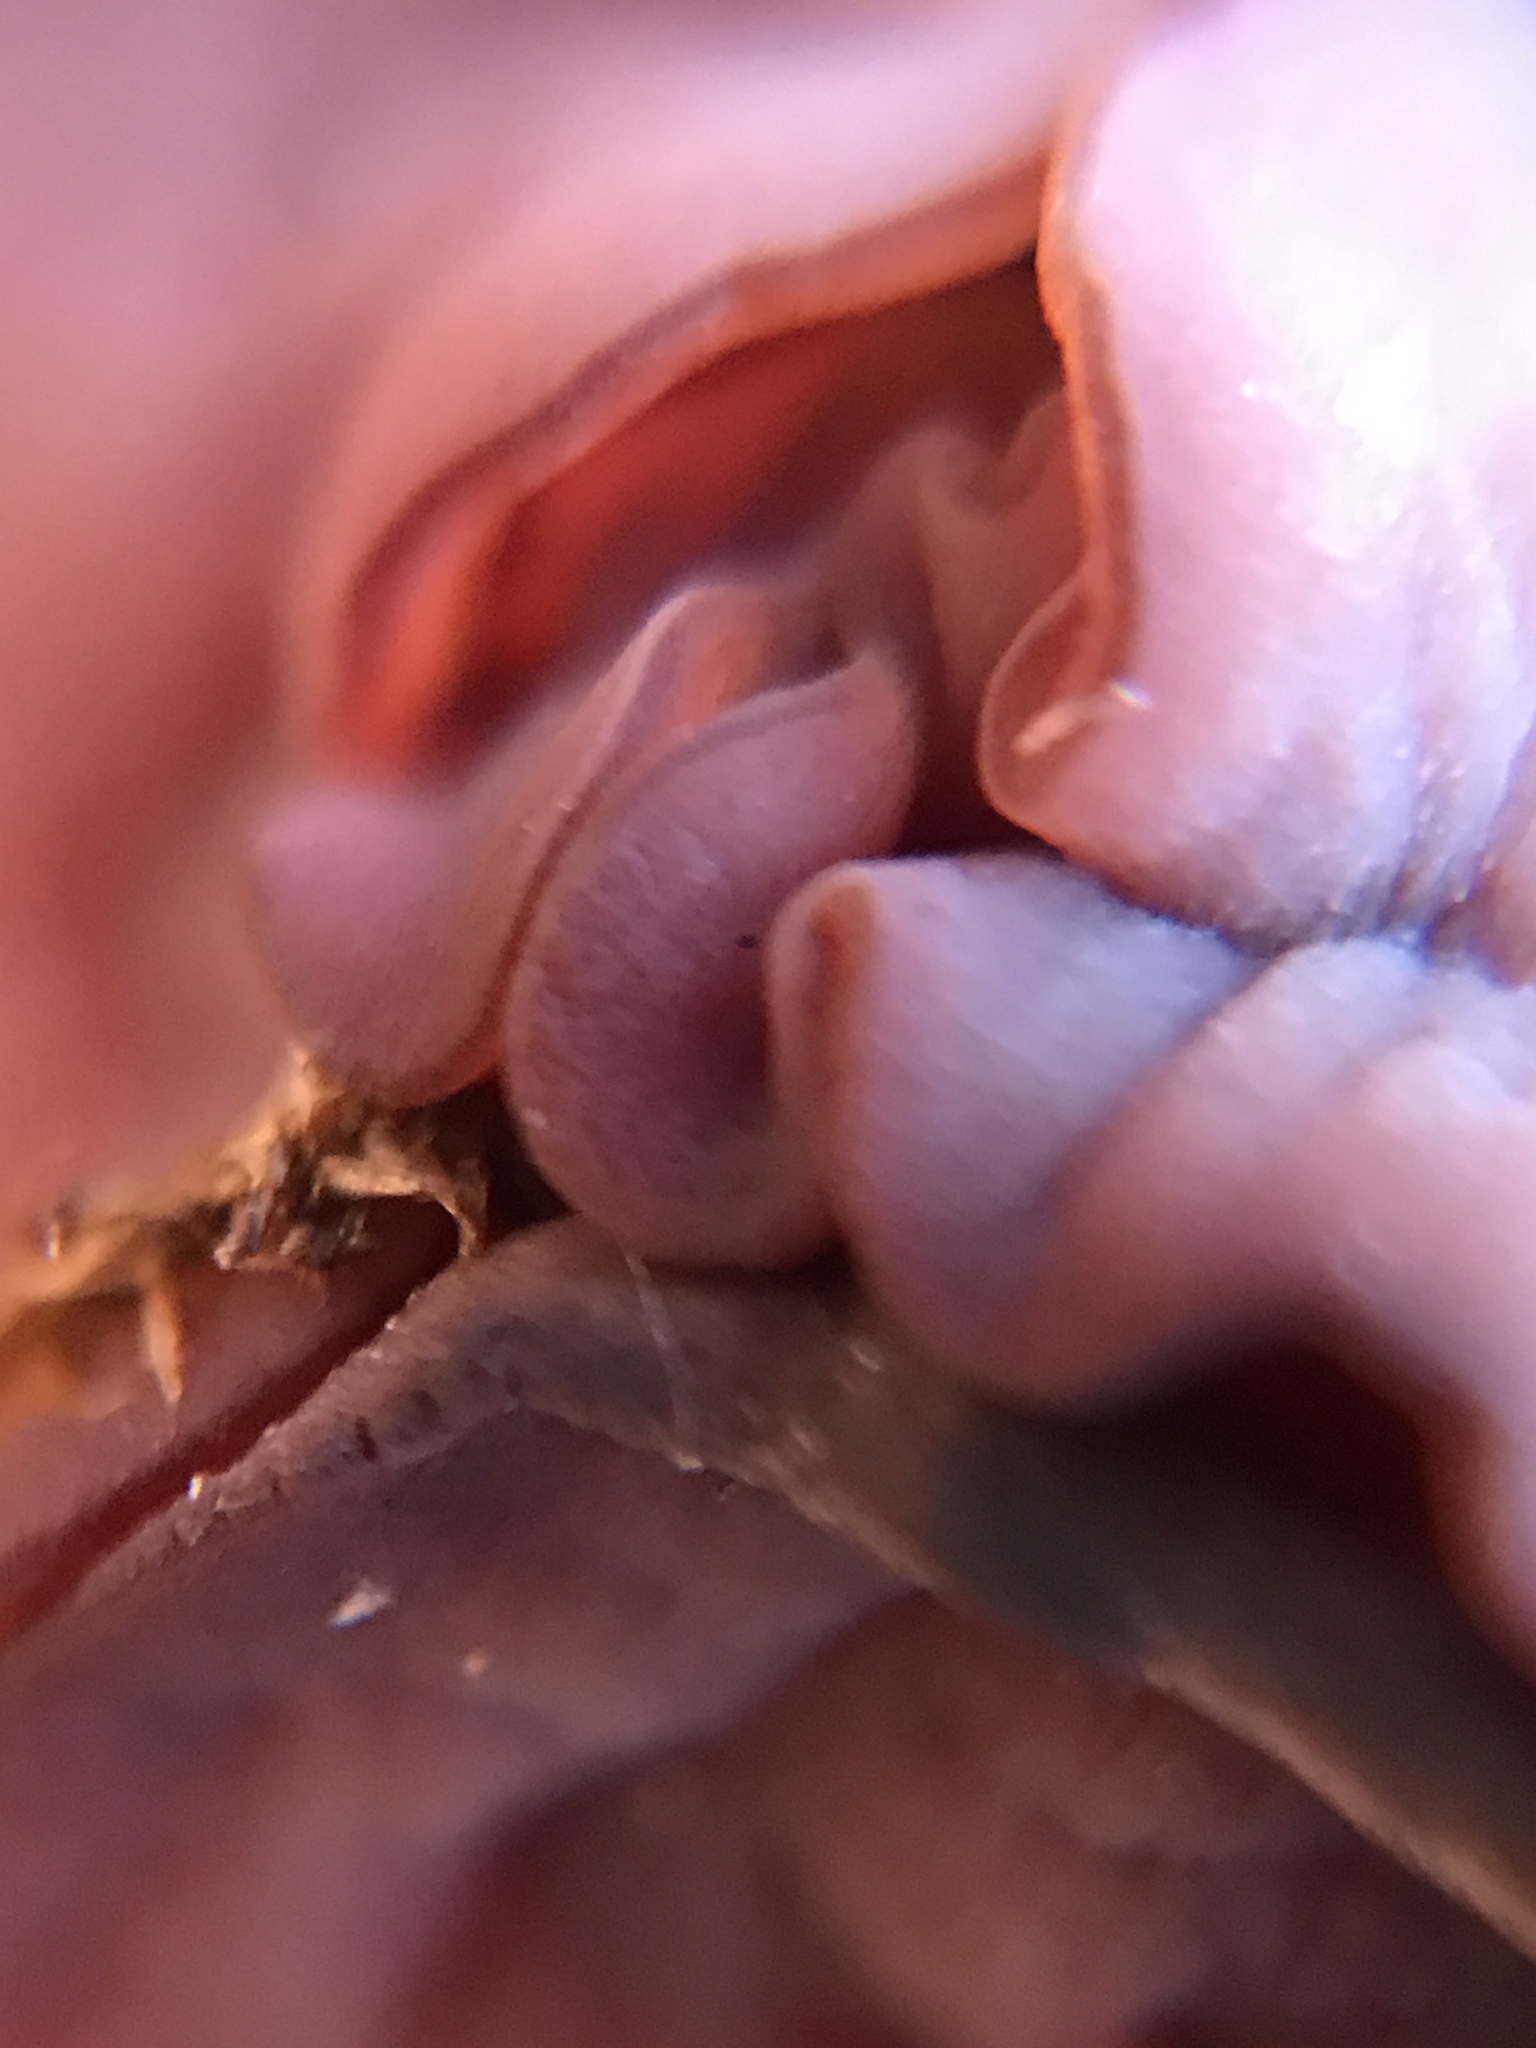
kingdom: Fungi
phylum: Ascomycota
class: Leotiomycetes
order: Helotiales
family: Gelatinodiscaceae
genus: Ascocoryne
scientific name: Ascocoryne sarcoides
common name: Purple jellydisc
